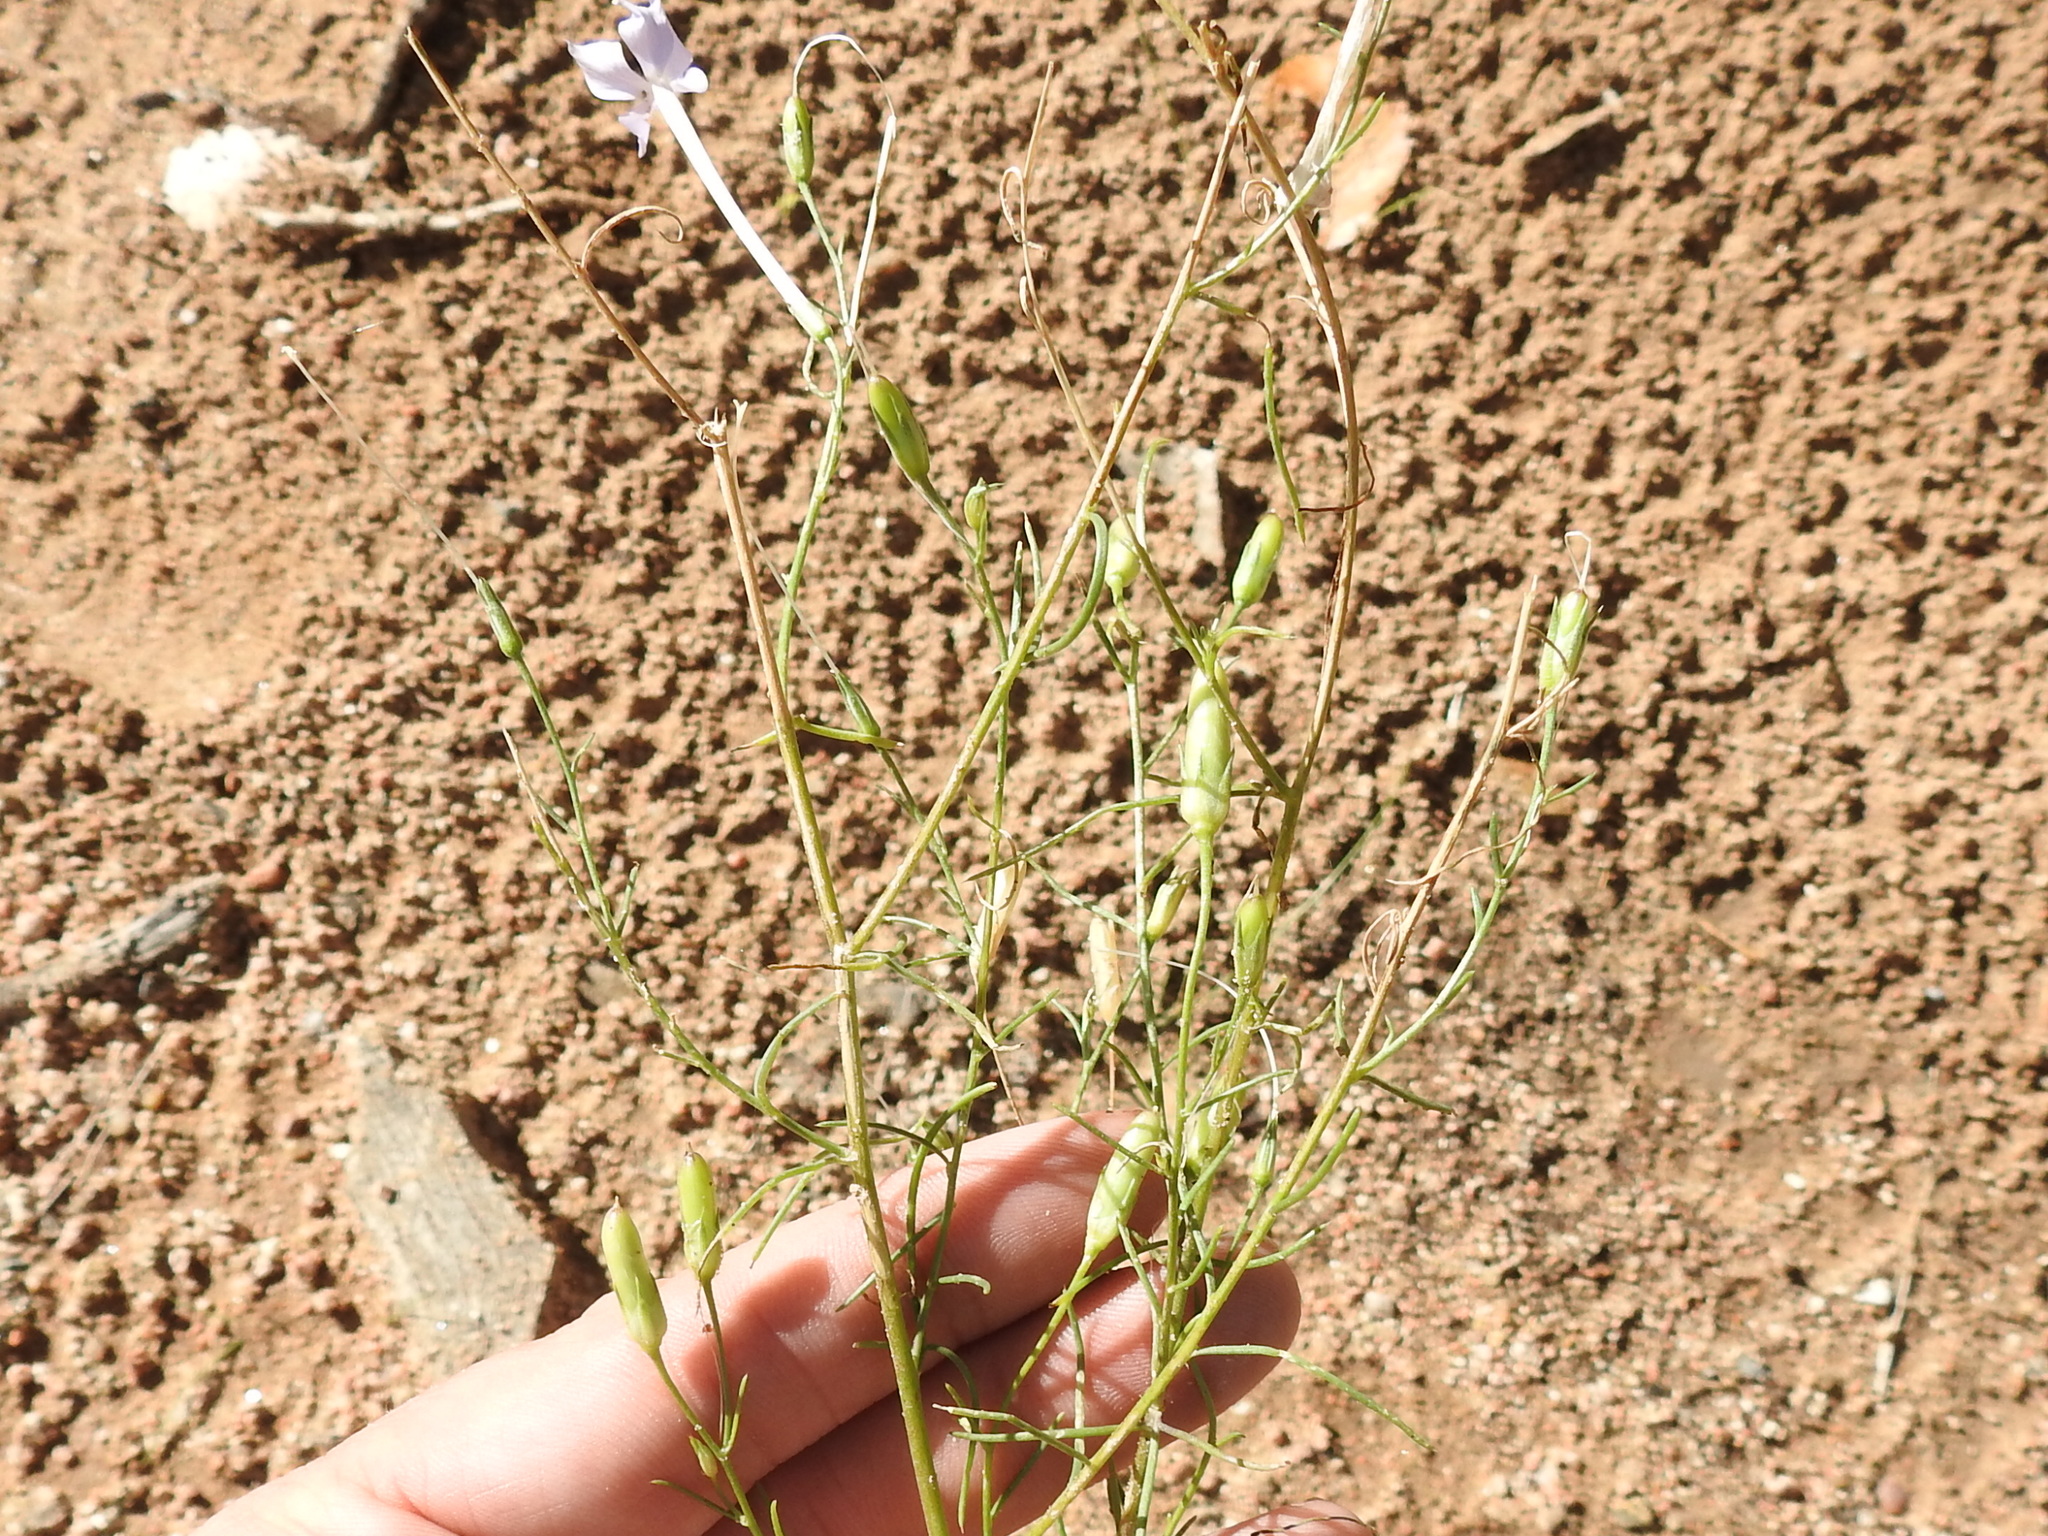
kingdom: Plantae
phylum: Tracheophyta
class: Magnoliopsida
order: Ericales
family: Polemoniaceae
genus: Ipomopsis
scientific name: Ipomopsis longiflora
